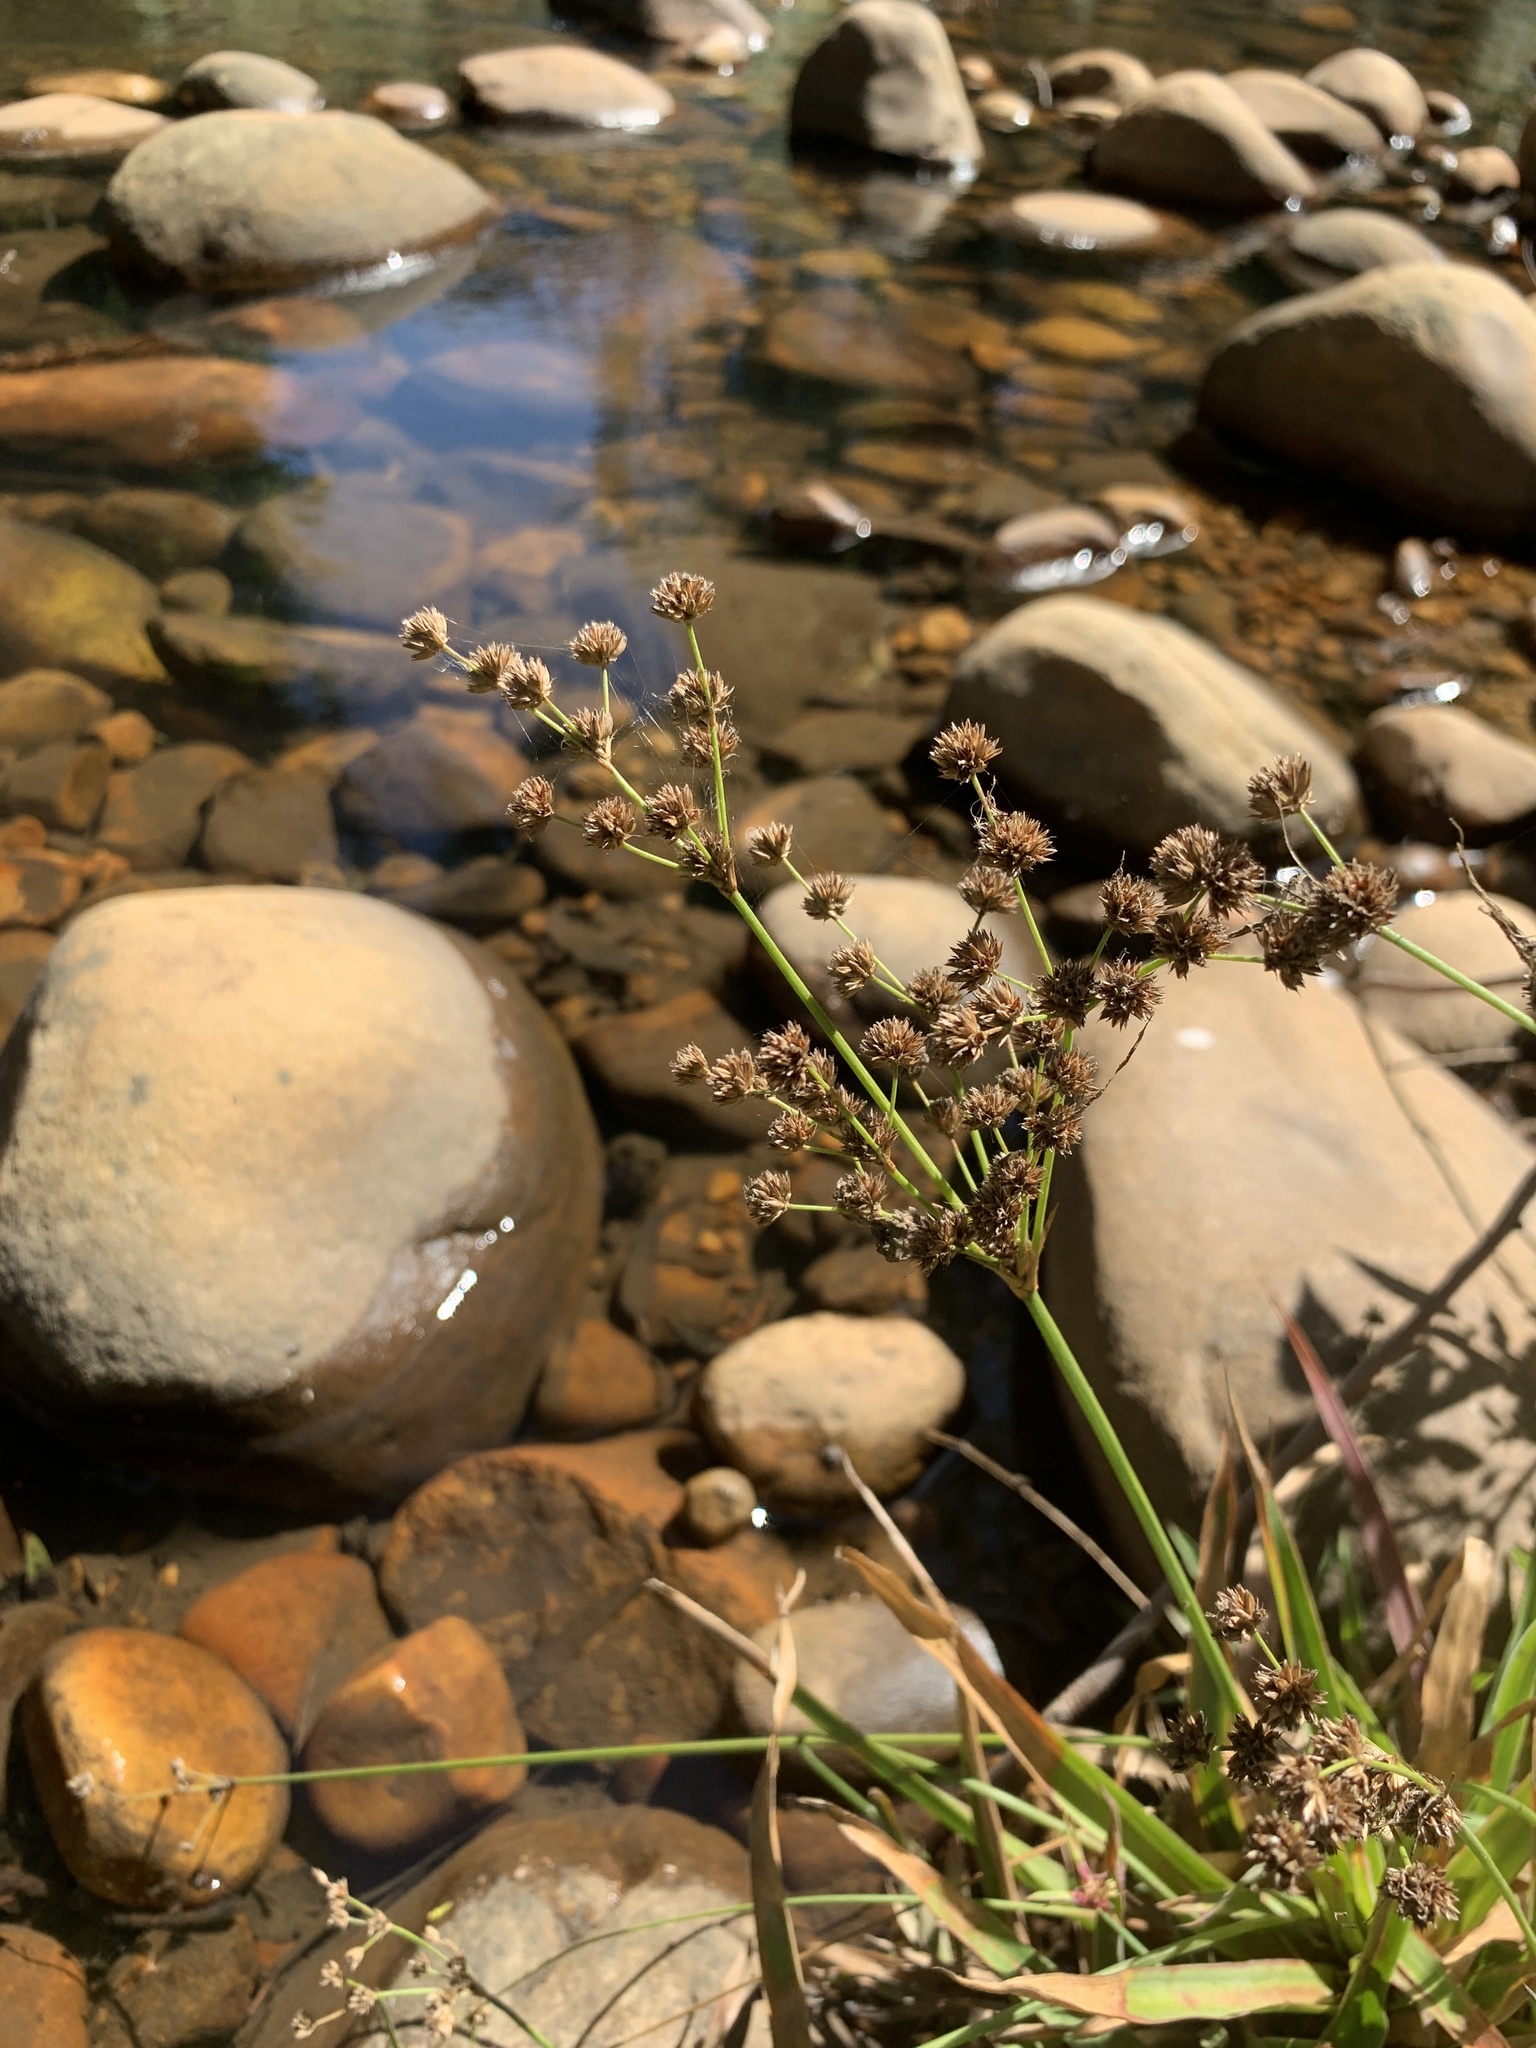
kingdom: Plantae
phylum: Tracheophyta
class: Liliopsida
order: Poales
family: Juncaceae
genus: Juncus
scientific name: Juncus lomatophyllus
